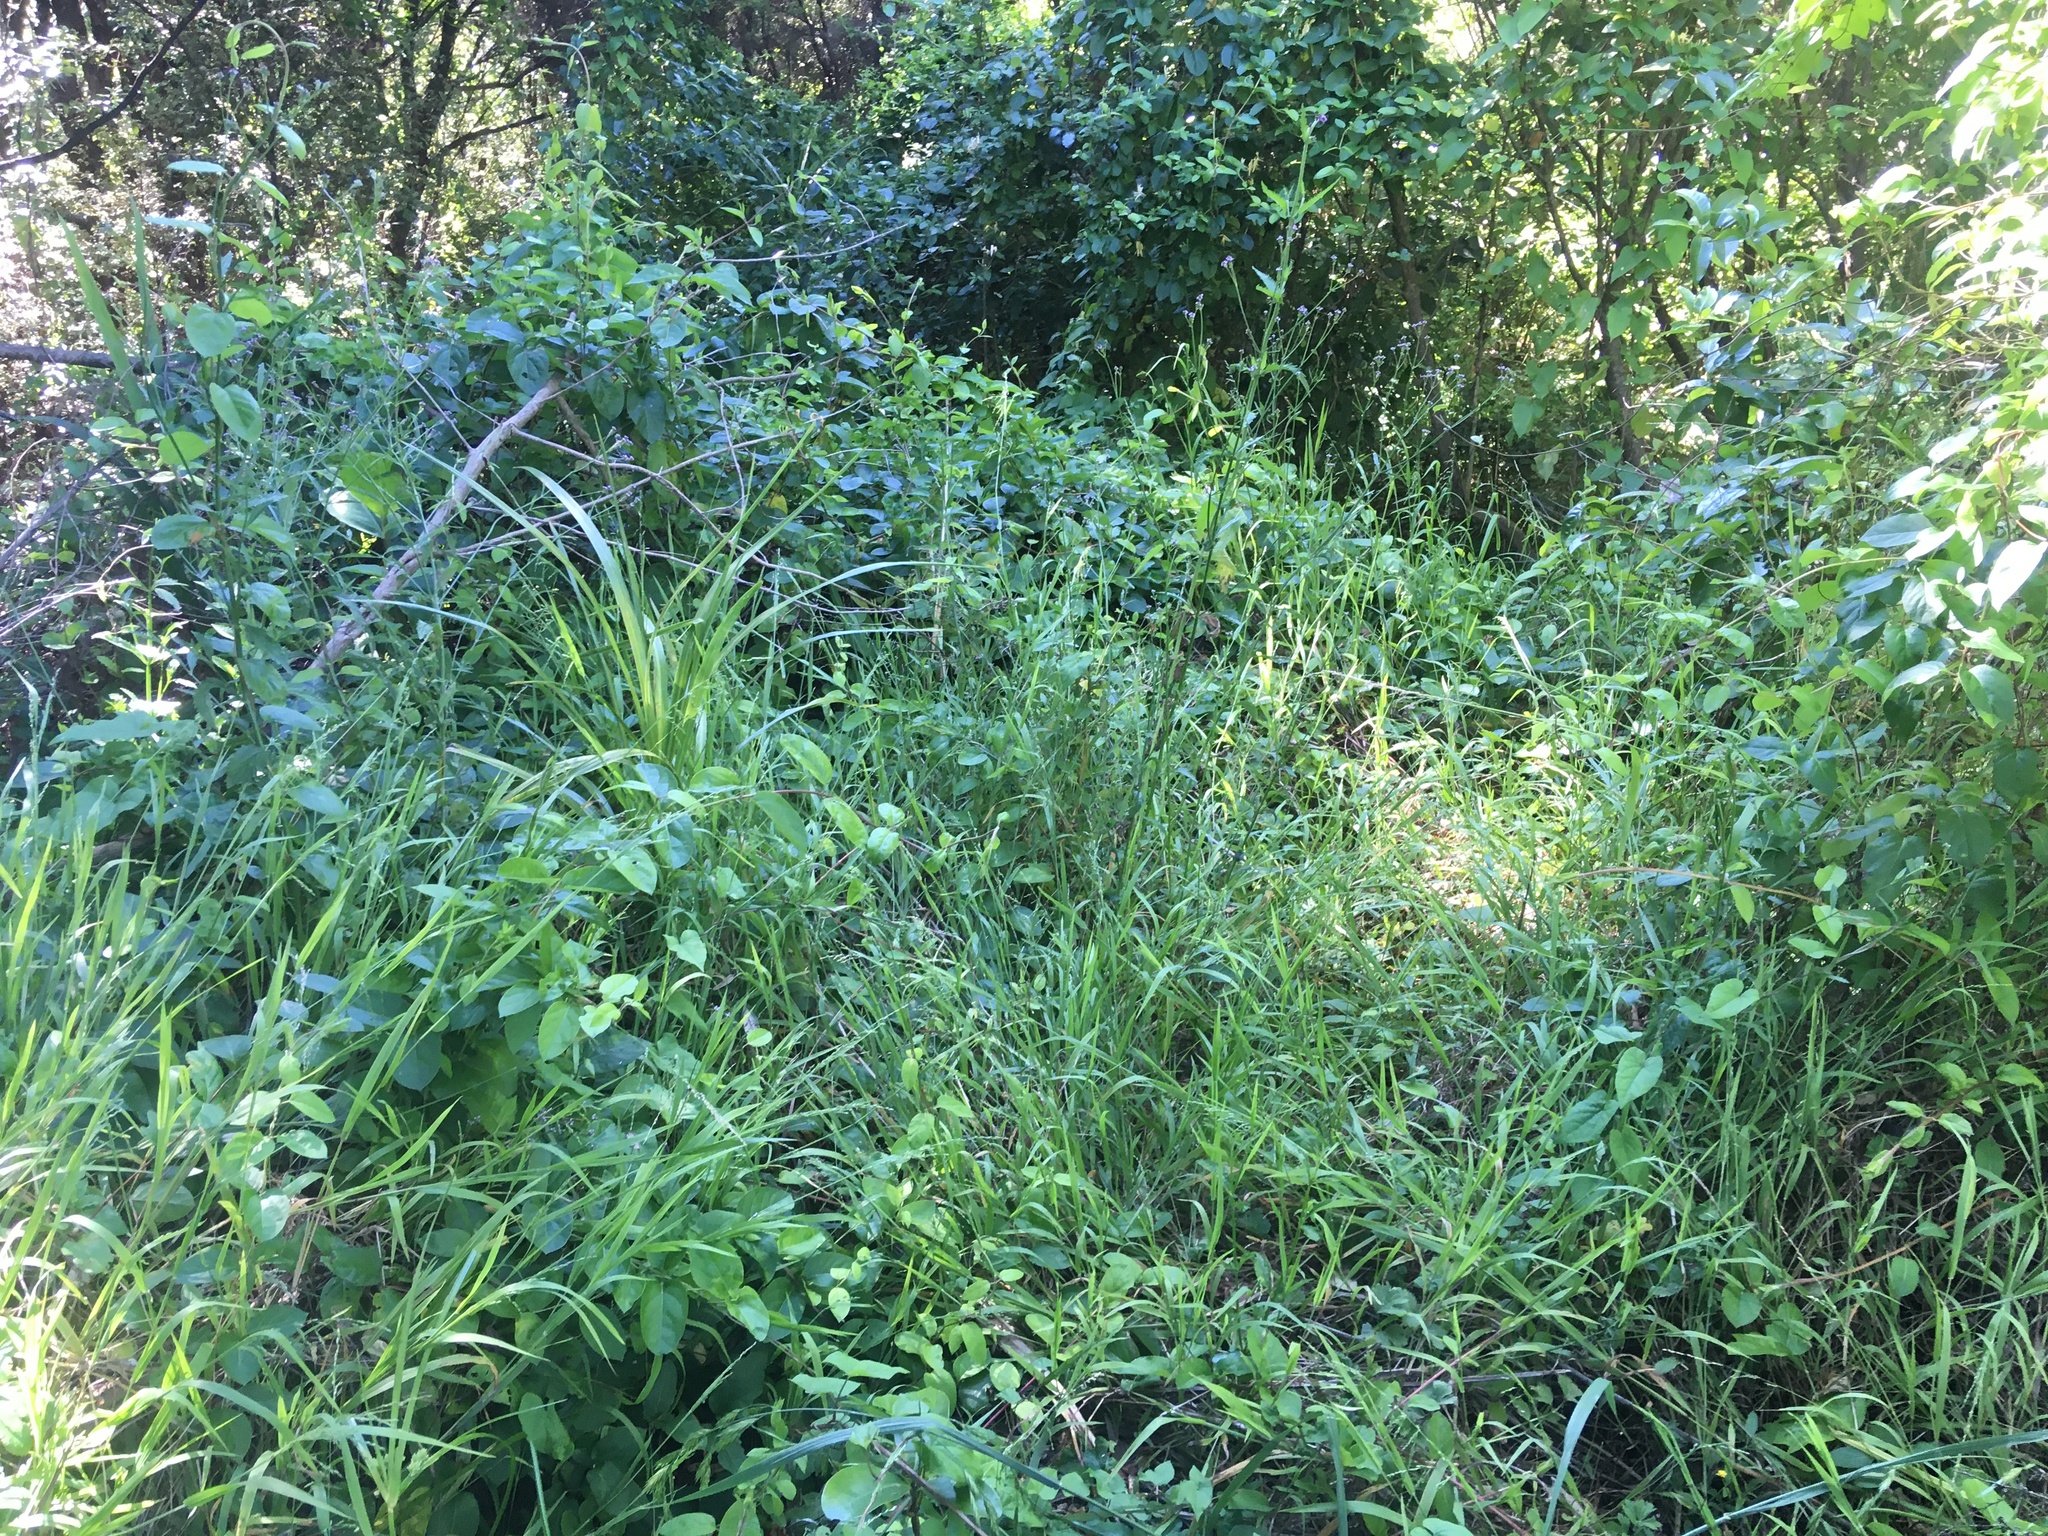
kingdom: Plantae
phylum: Tracheophyta
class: Liliopsida
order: Asparagales
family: Asparagaceae
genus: Cordyline
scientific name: Cordyline australis
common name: Cabbage-palm
